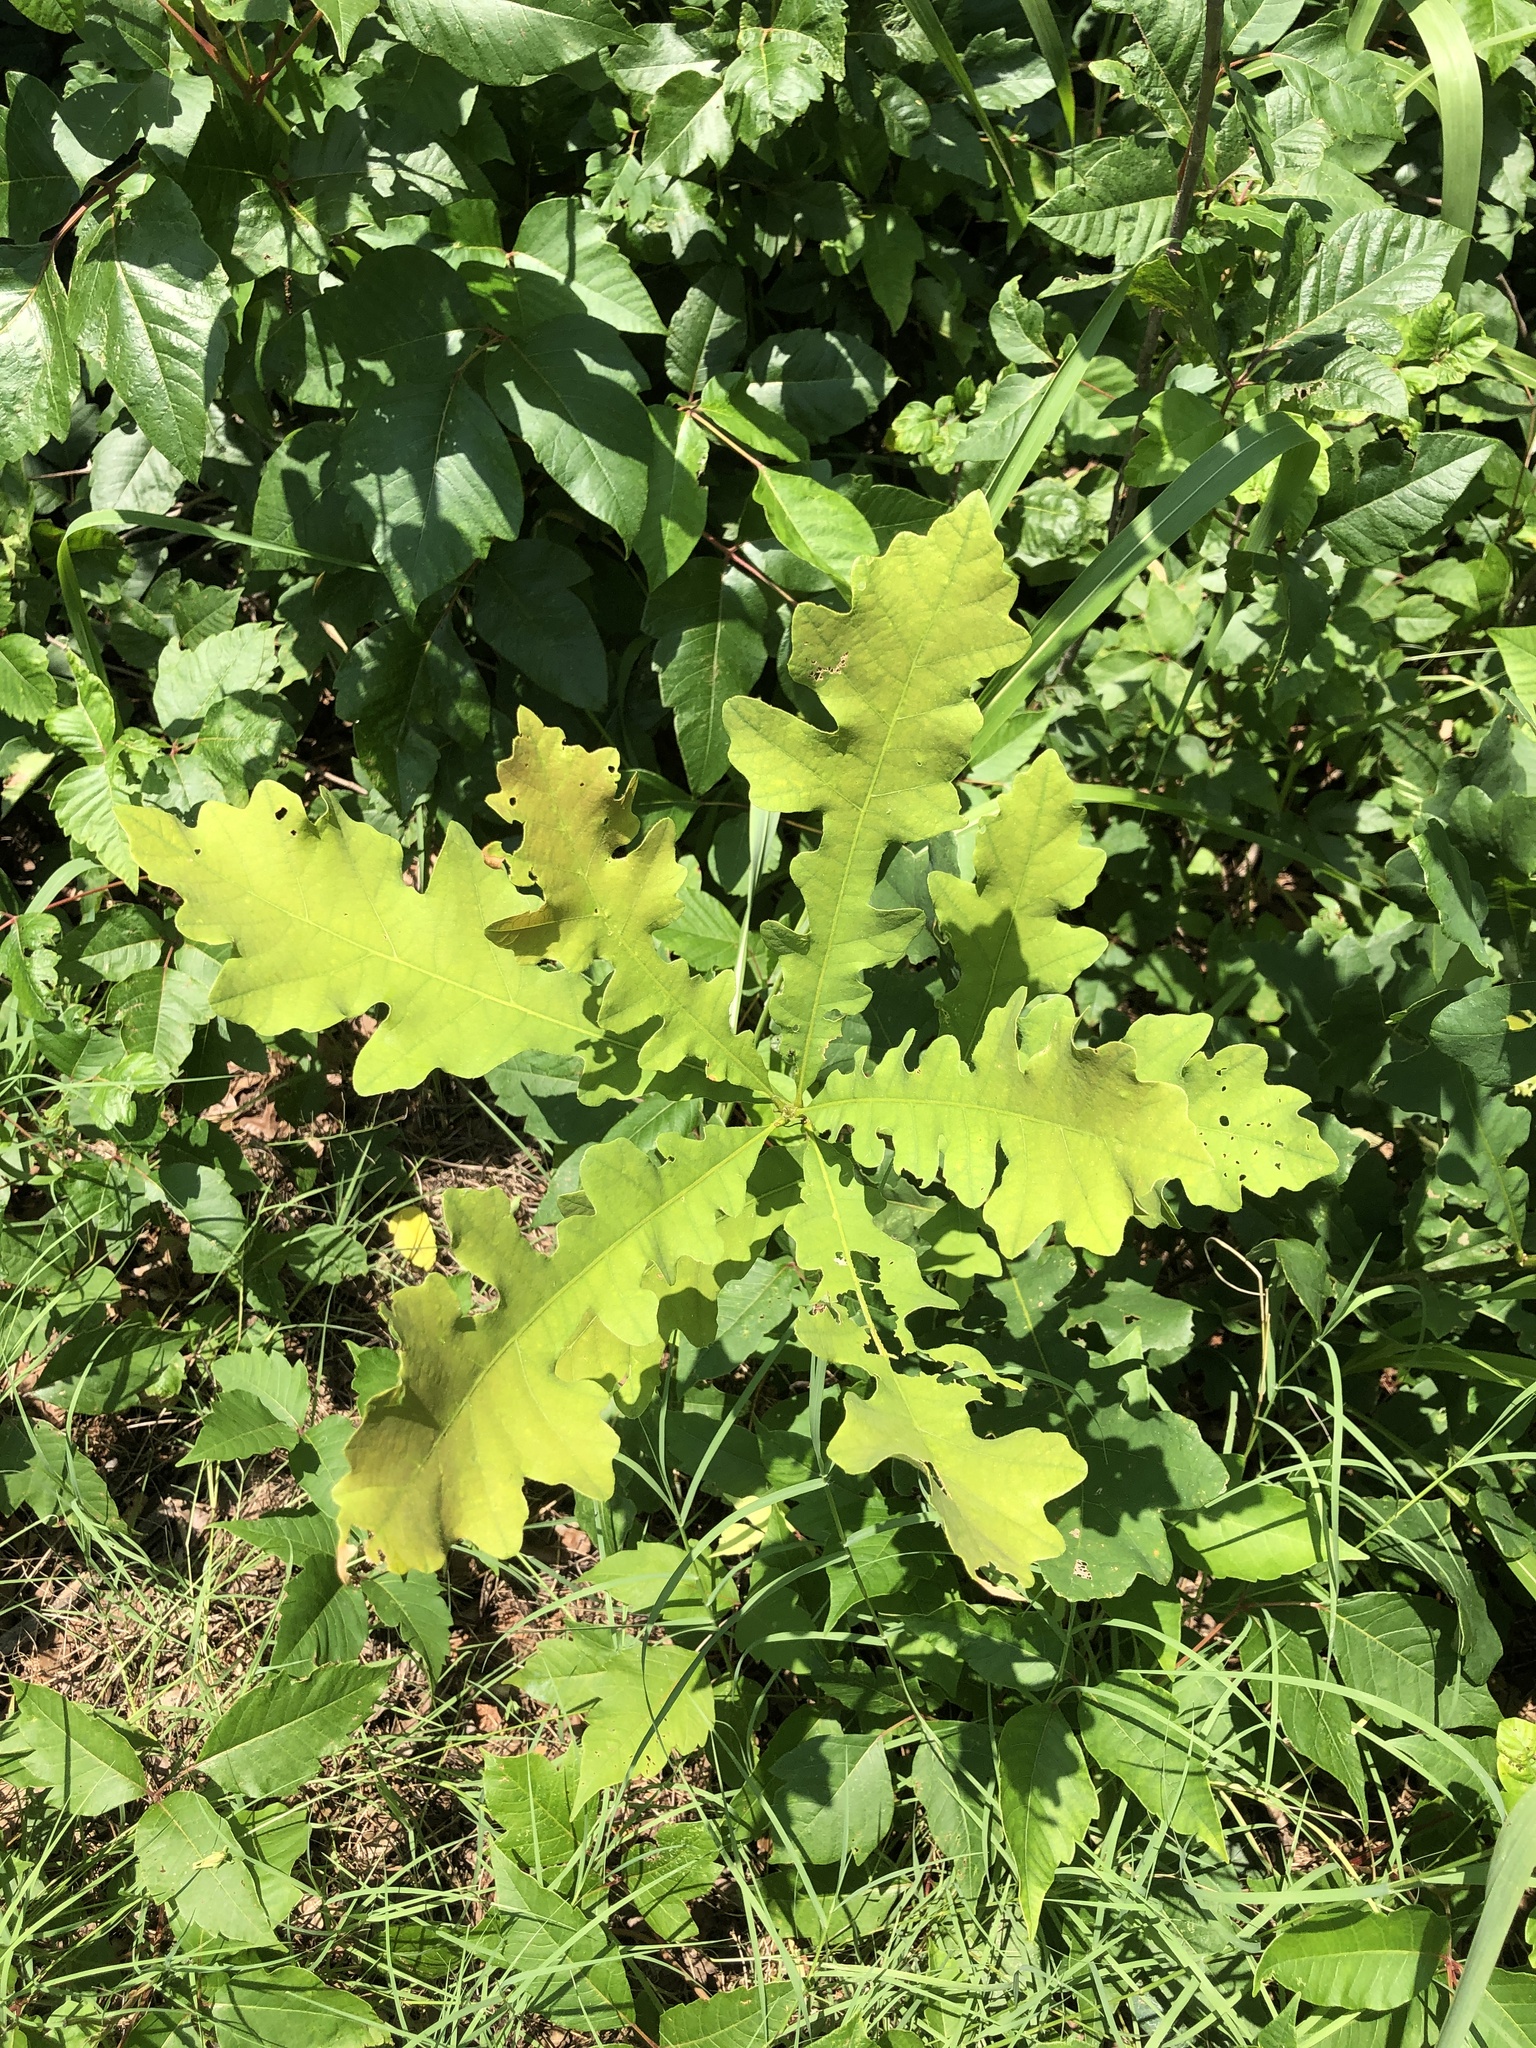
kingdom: Plantae
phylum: Tracheophyta
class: Magnoliopsida
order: Fagales
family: Fagaceae
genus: Quercus
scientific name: Quercus macrocarpa
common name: Bur oak
